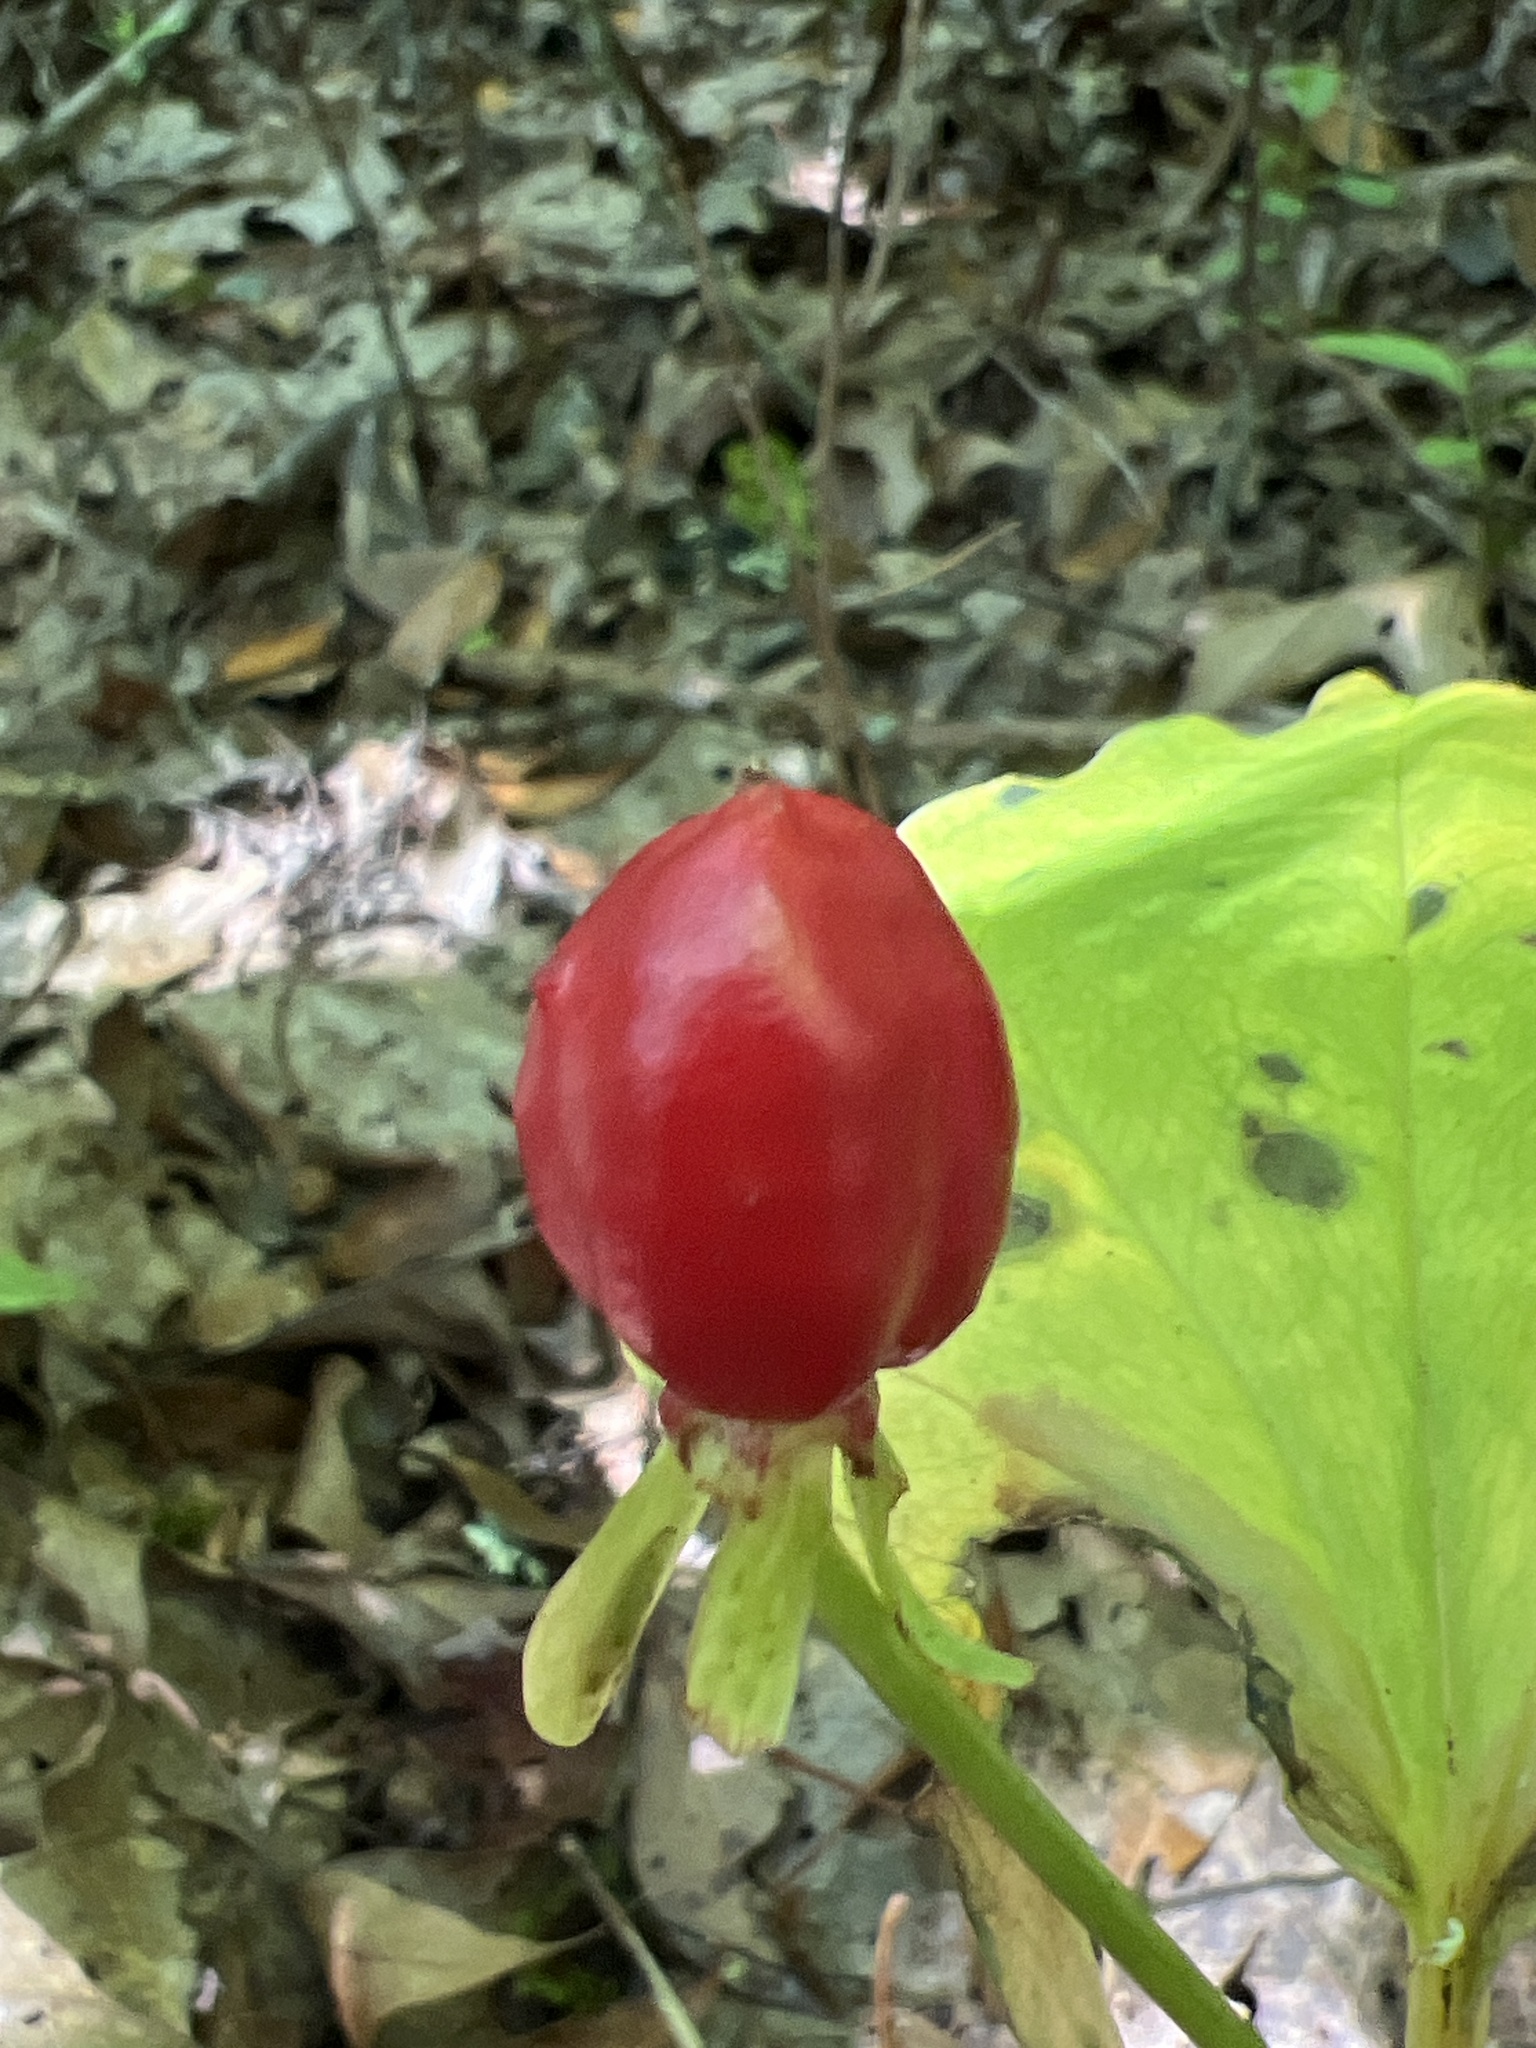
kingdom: Plantae
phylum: Tracheophyta
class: Liliopsida
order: Liliales
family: Melanthiaceae
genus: Trillium
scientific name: Trillium undulatum
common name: Paint trillium
